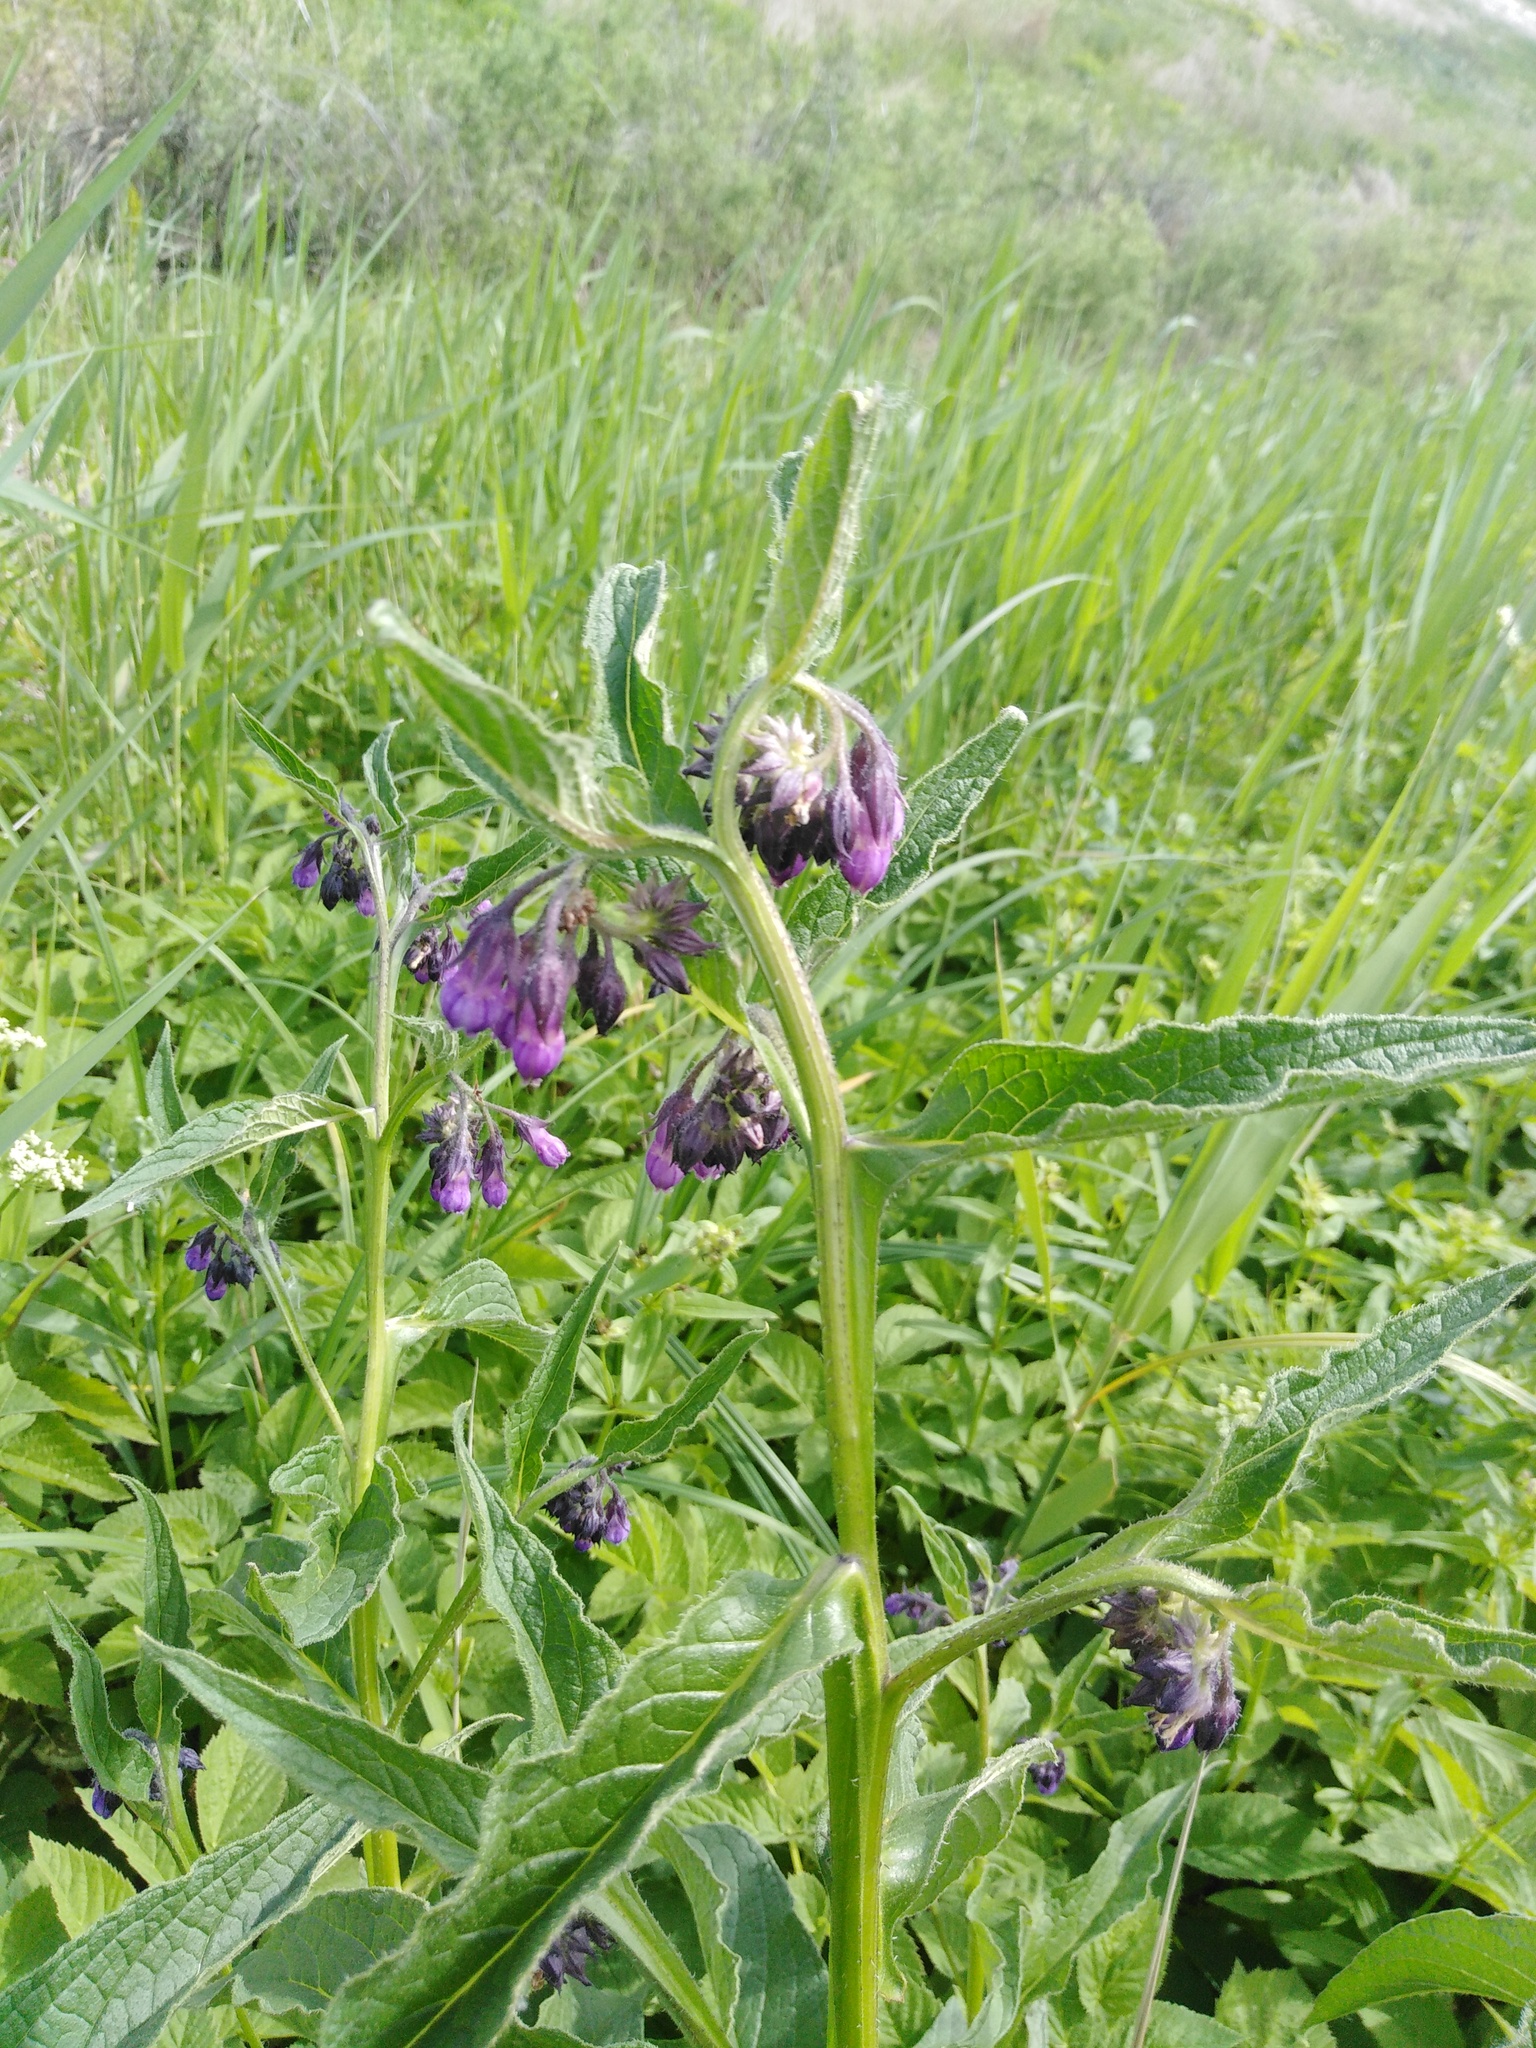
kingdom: Plantae
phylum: Tracheophyta
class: Magnoliopsida
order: Boraginales
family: Boraginaceae
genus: Symphytum
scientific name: Symphytum officinale
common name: Common comfrey
